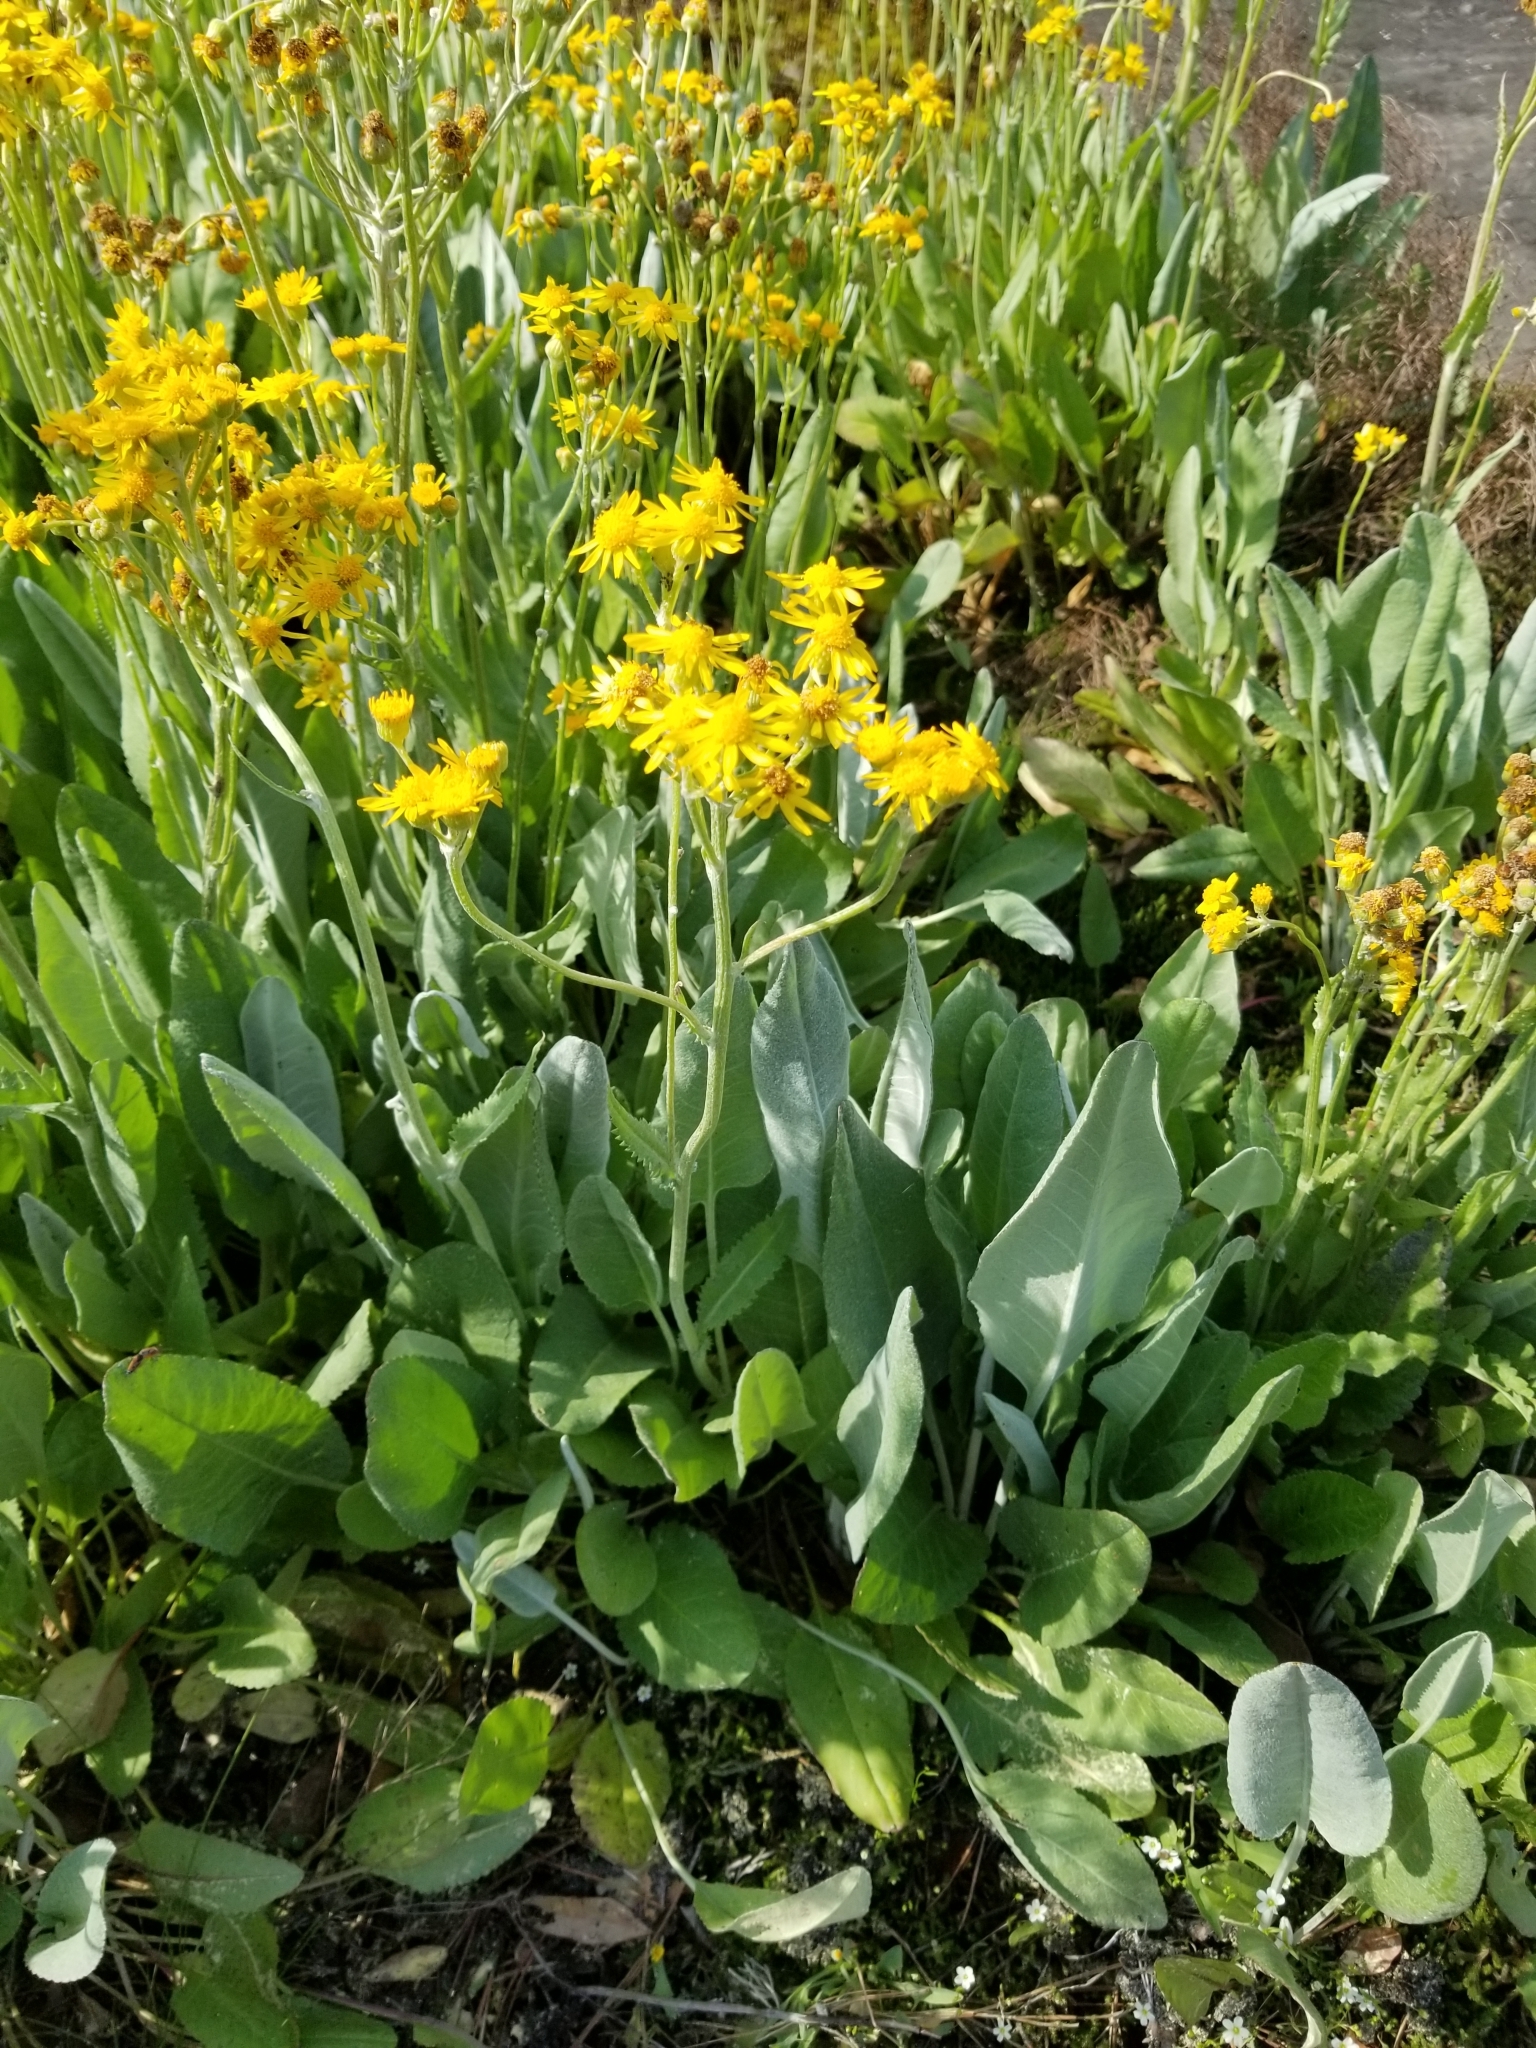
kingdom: Plantae
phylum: Tracheophyta
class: Magnoliopsida
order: Asterales
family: Asteraceae
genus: Packera
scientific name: Packera dubia
